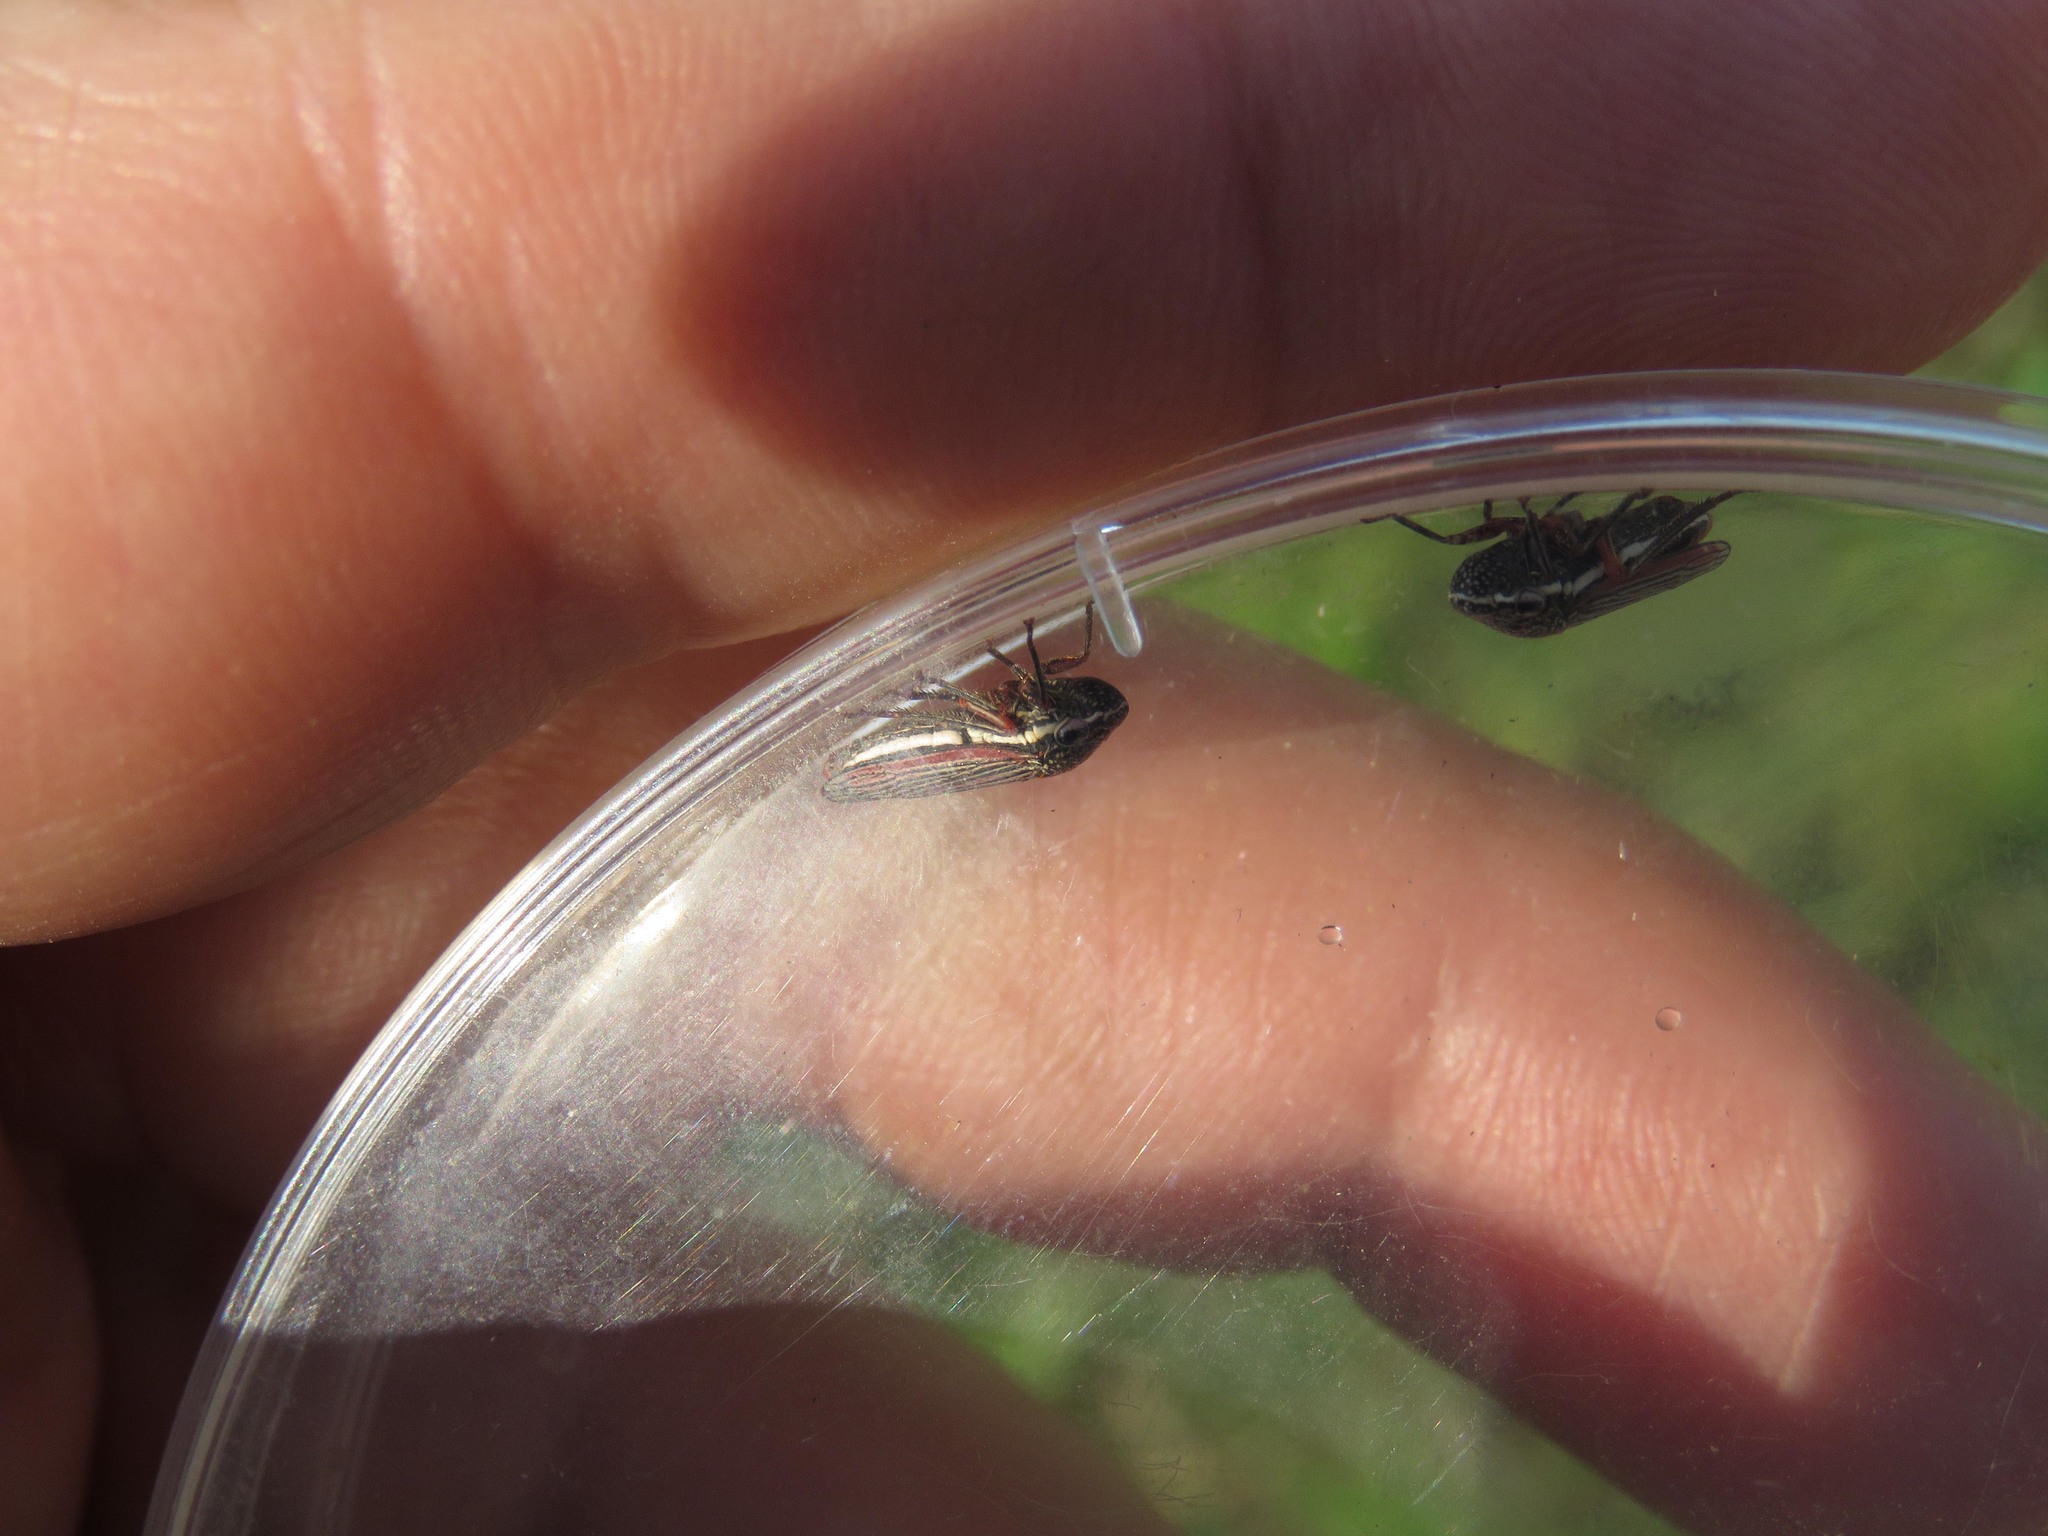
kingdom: Animalia
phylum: Arthropoda
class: Insecta
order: Hemiptera
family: Cicadellidae
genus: Cuerna
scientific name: Cuerna costalis
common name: Lateral-lined sharpshooter
